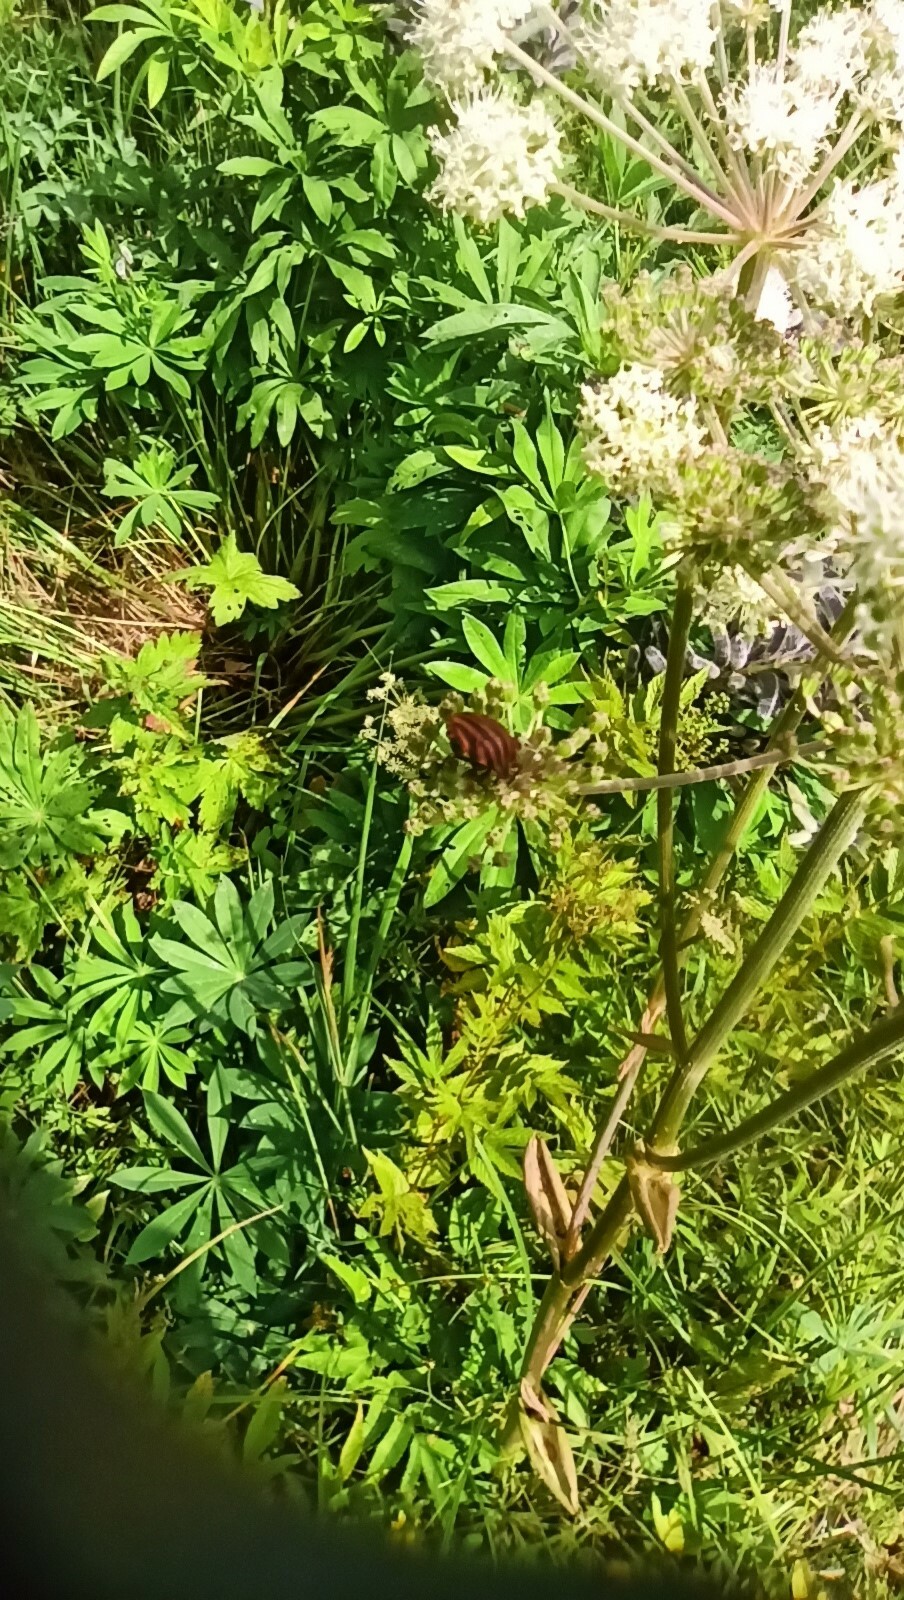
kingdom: Animalia
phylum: Arthropoda
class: Insecta
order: Hemiptera
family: Pentatomidae
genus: Graphosoma
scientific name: Graphosoma italicum
